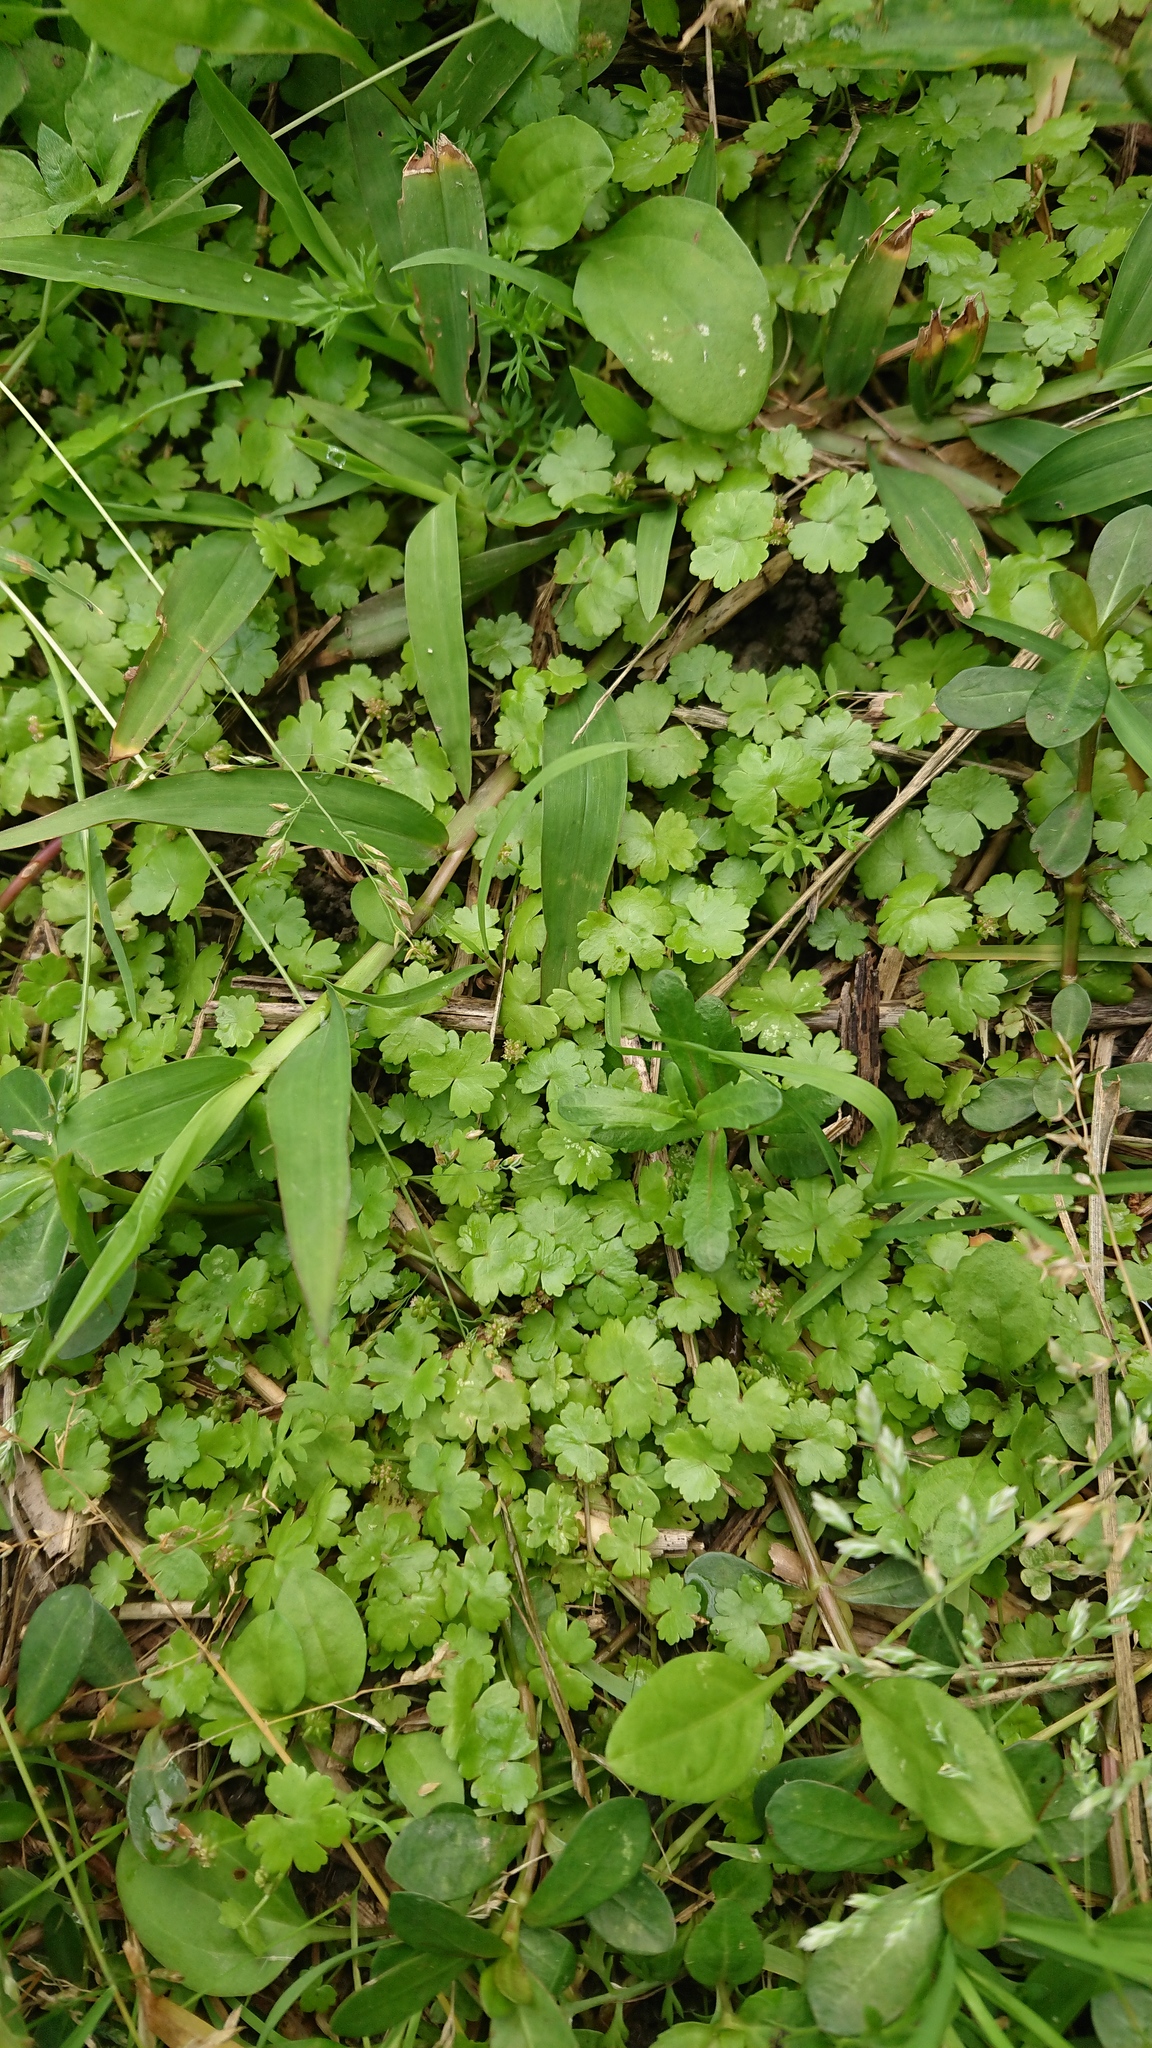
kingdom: Plantae
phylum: Tracheophyta
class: Magnoliopsida
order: Apiales
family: Araliaceae
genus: Hydrocotyle
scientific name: Hydrocotyle sibthorpioides
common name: Lawn marshpennywort
